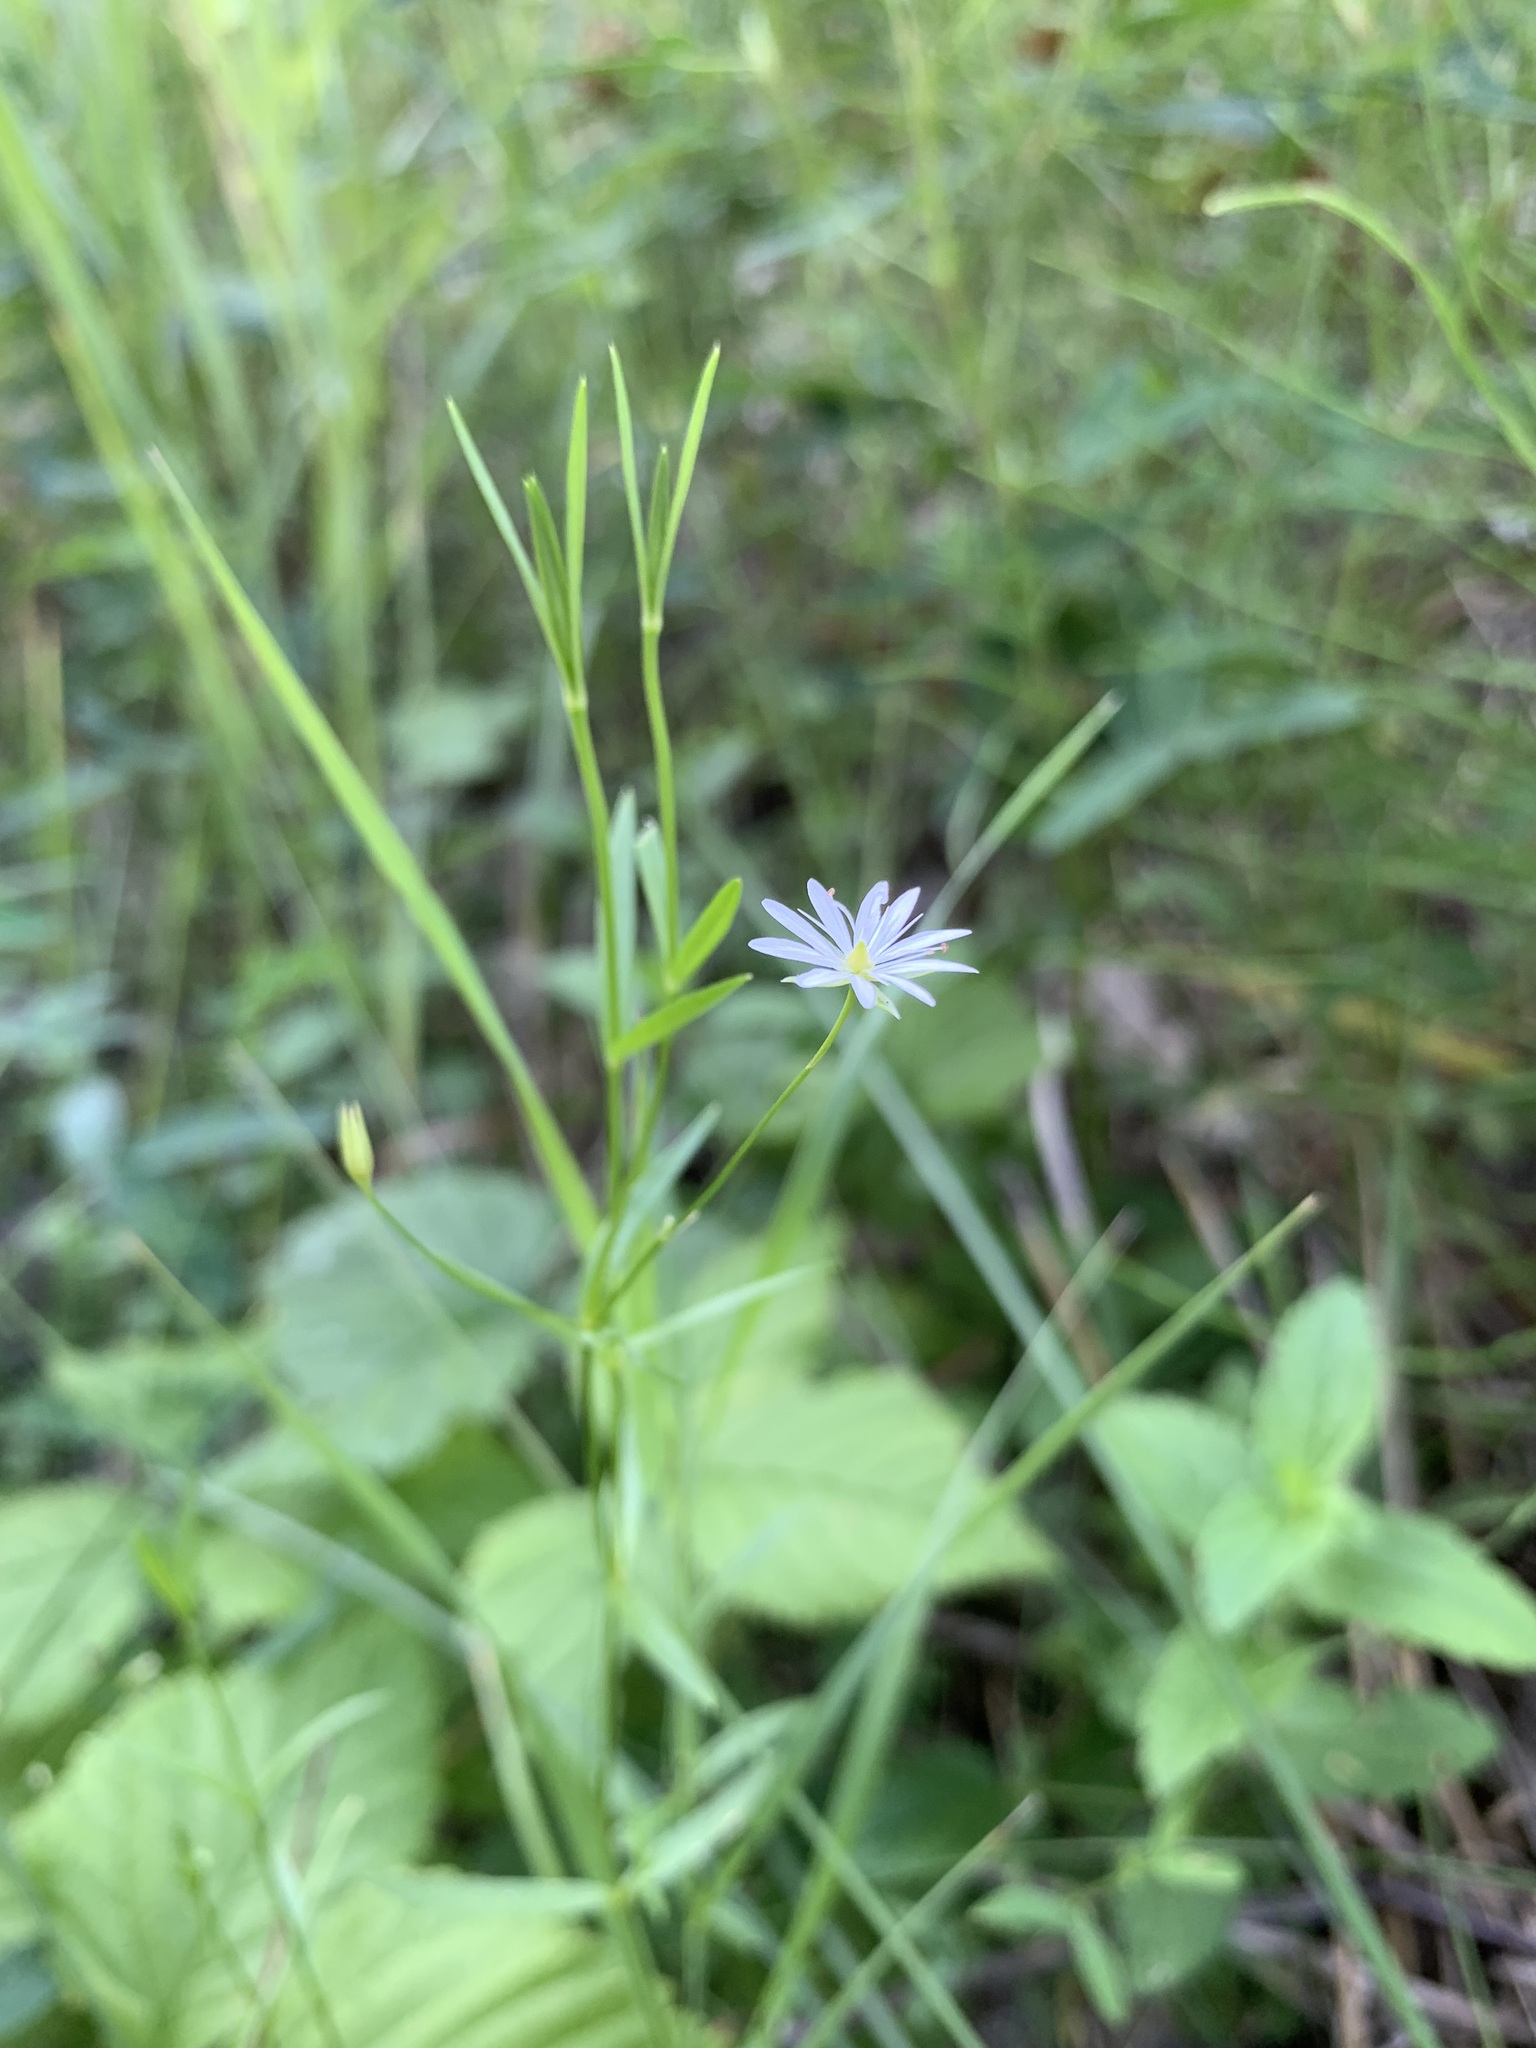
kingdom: Plantae
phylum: Tracheophyta
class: Magnoliopsida
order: Caryophyllales
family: Caryophyllaceae
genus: Stellaria
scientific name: Stellaria graminea
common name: Grass-like starwort
